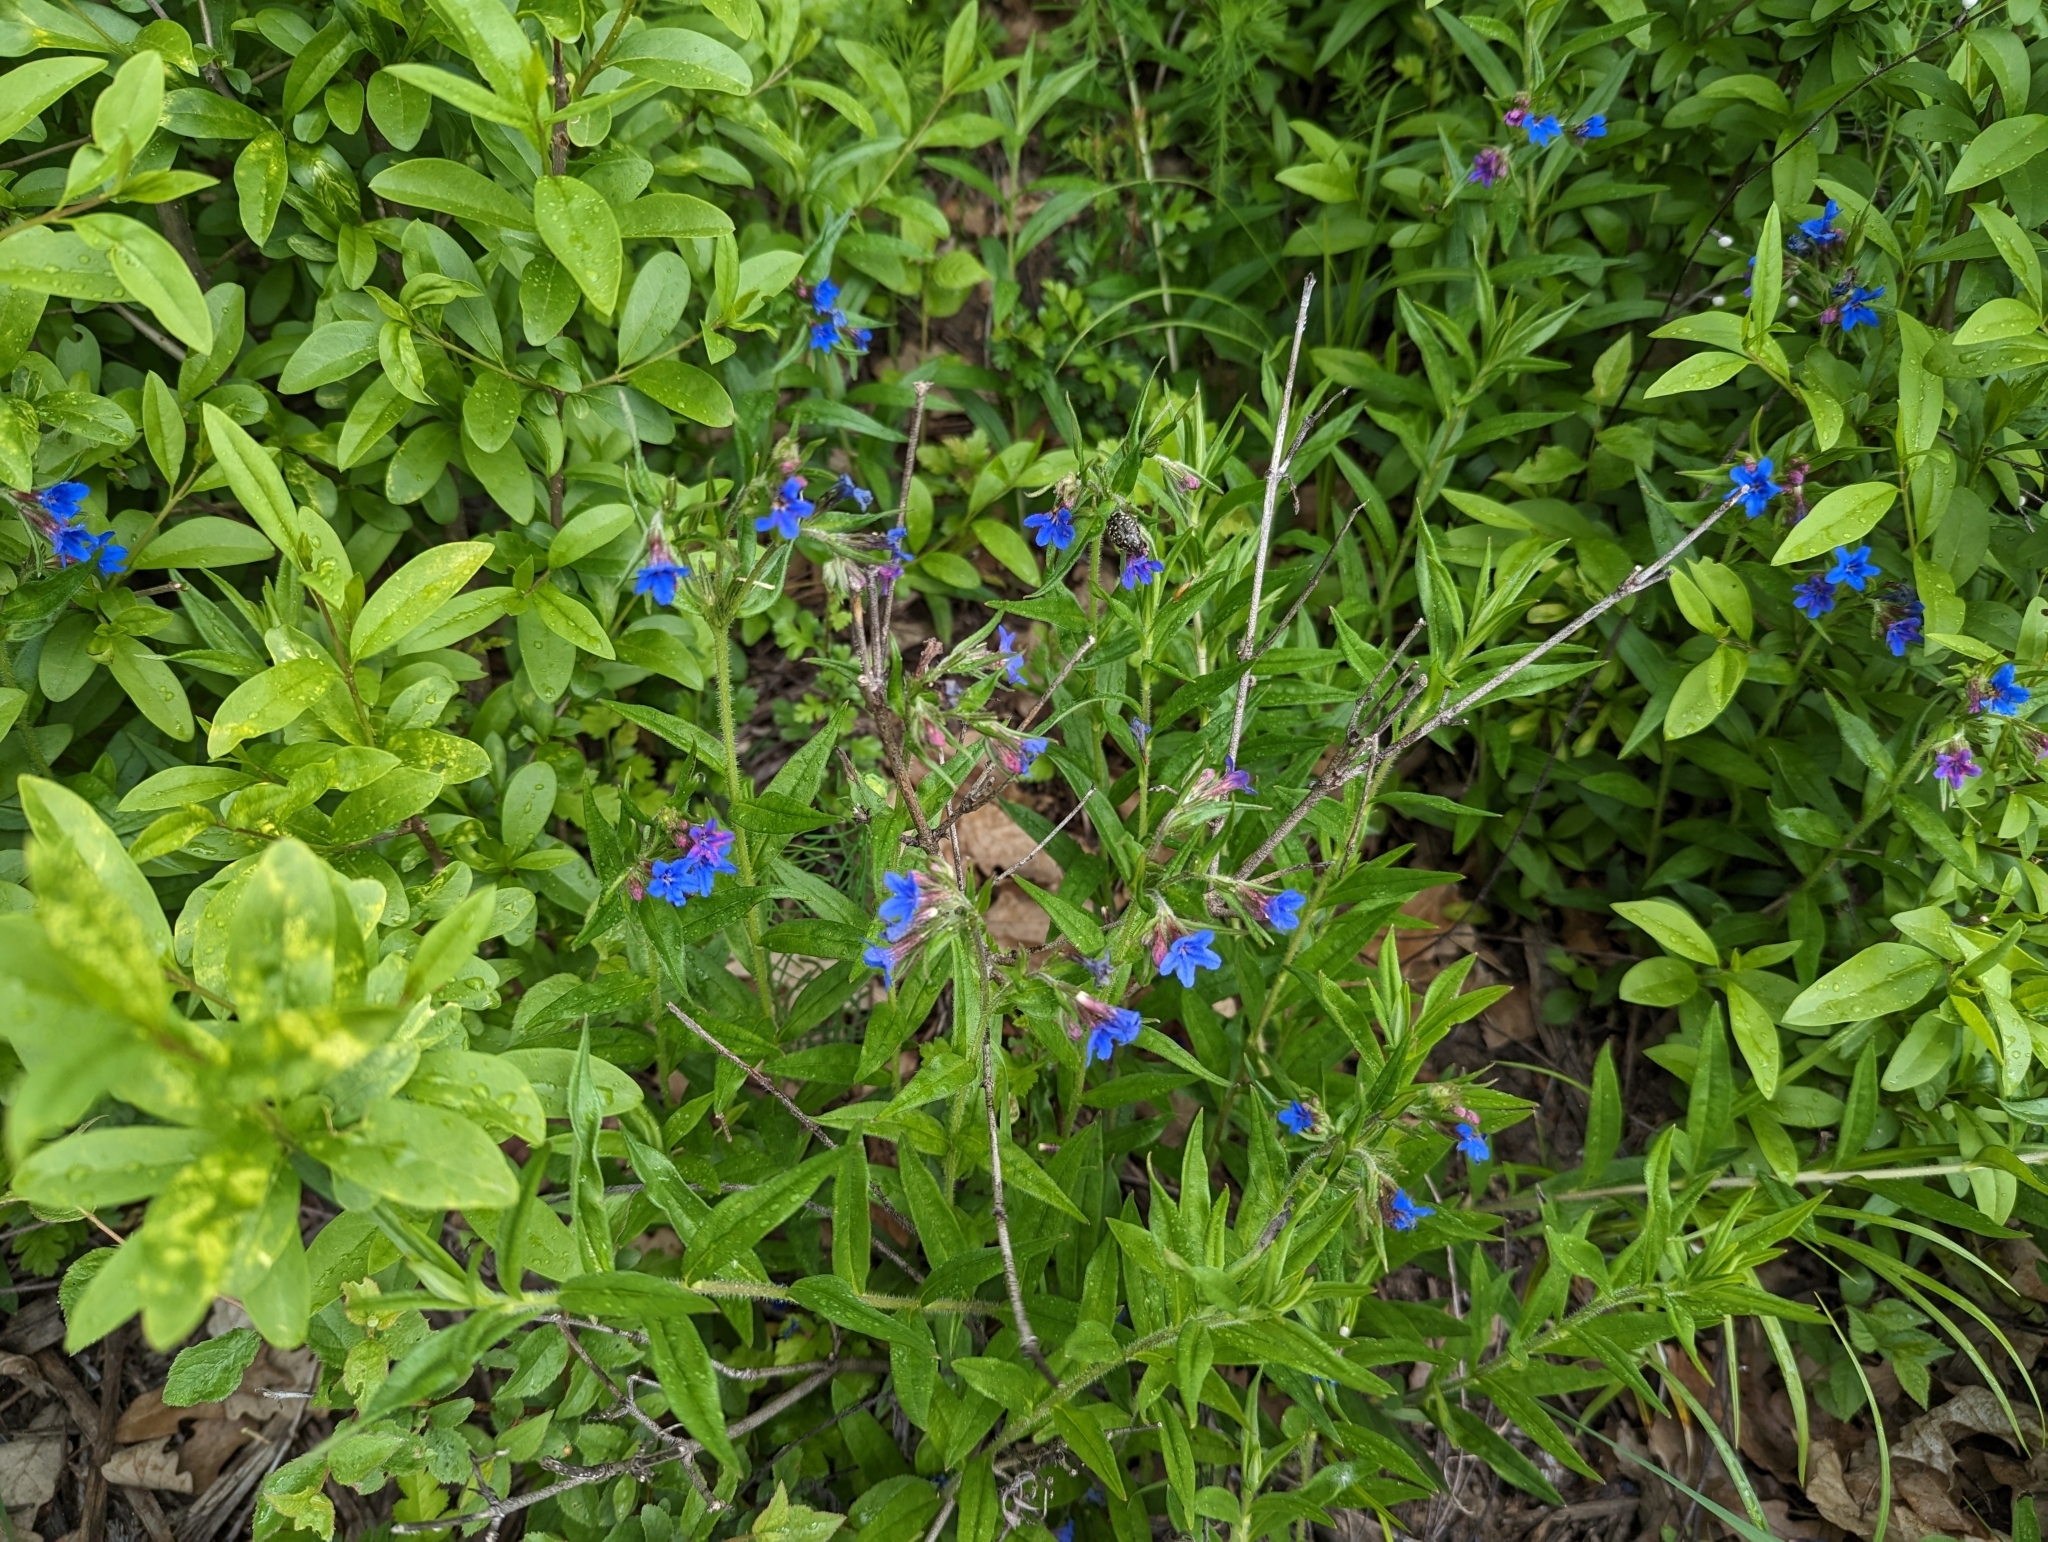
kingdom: Plantae
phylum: Tracheophyta
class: Magnoliopsida
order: Boraginales
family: Boraginaceae
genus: Aegonychon
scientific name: Aegonychon purpurocaeruleum
